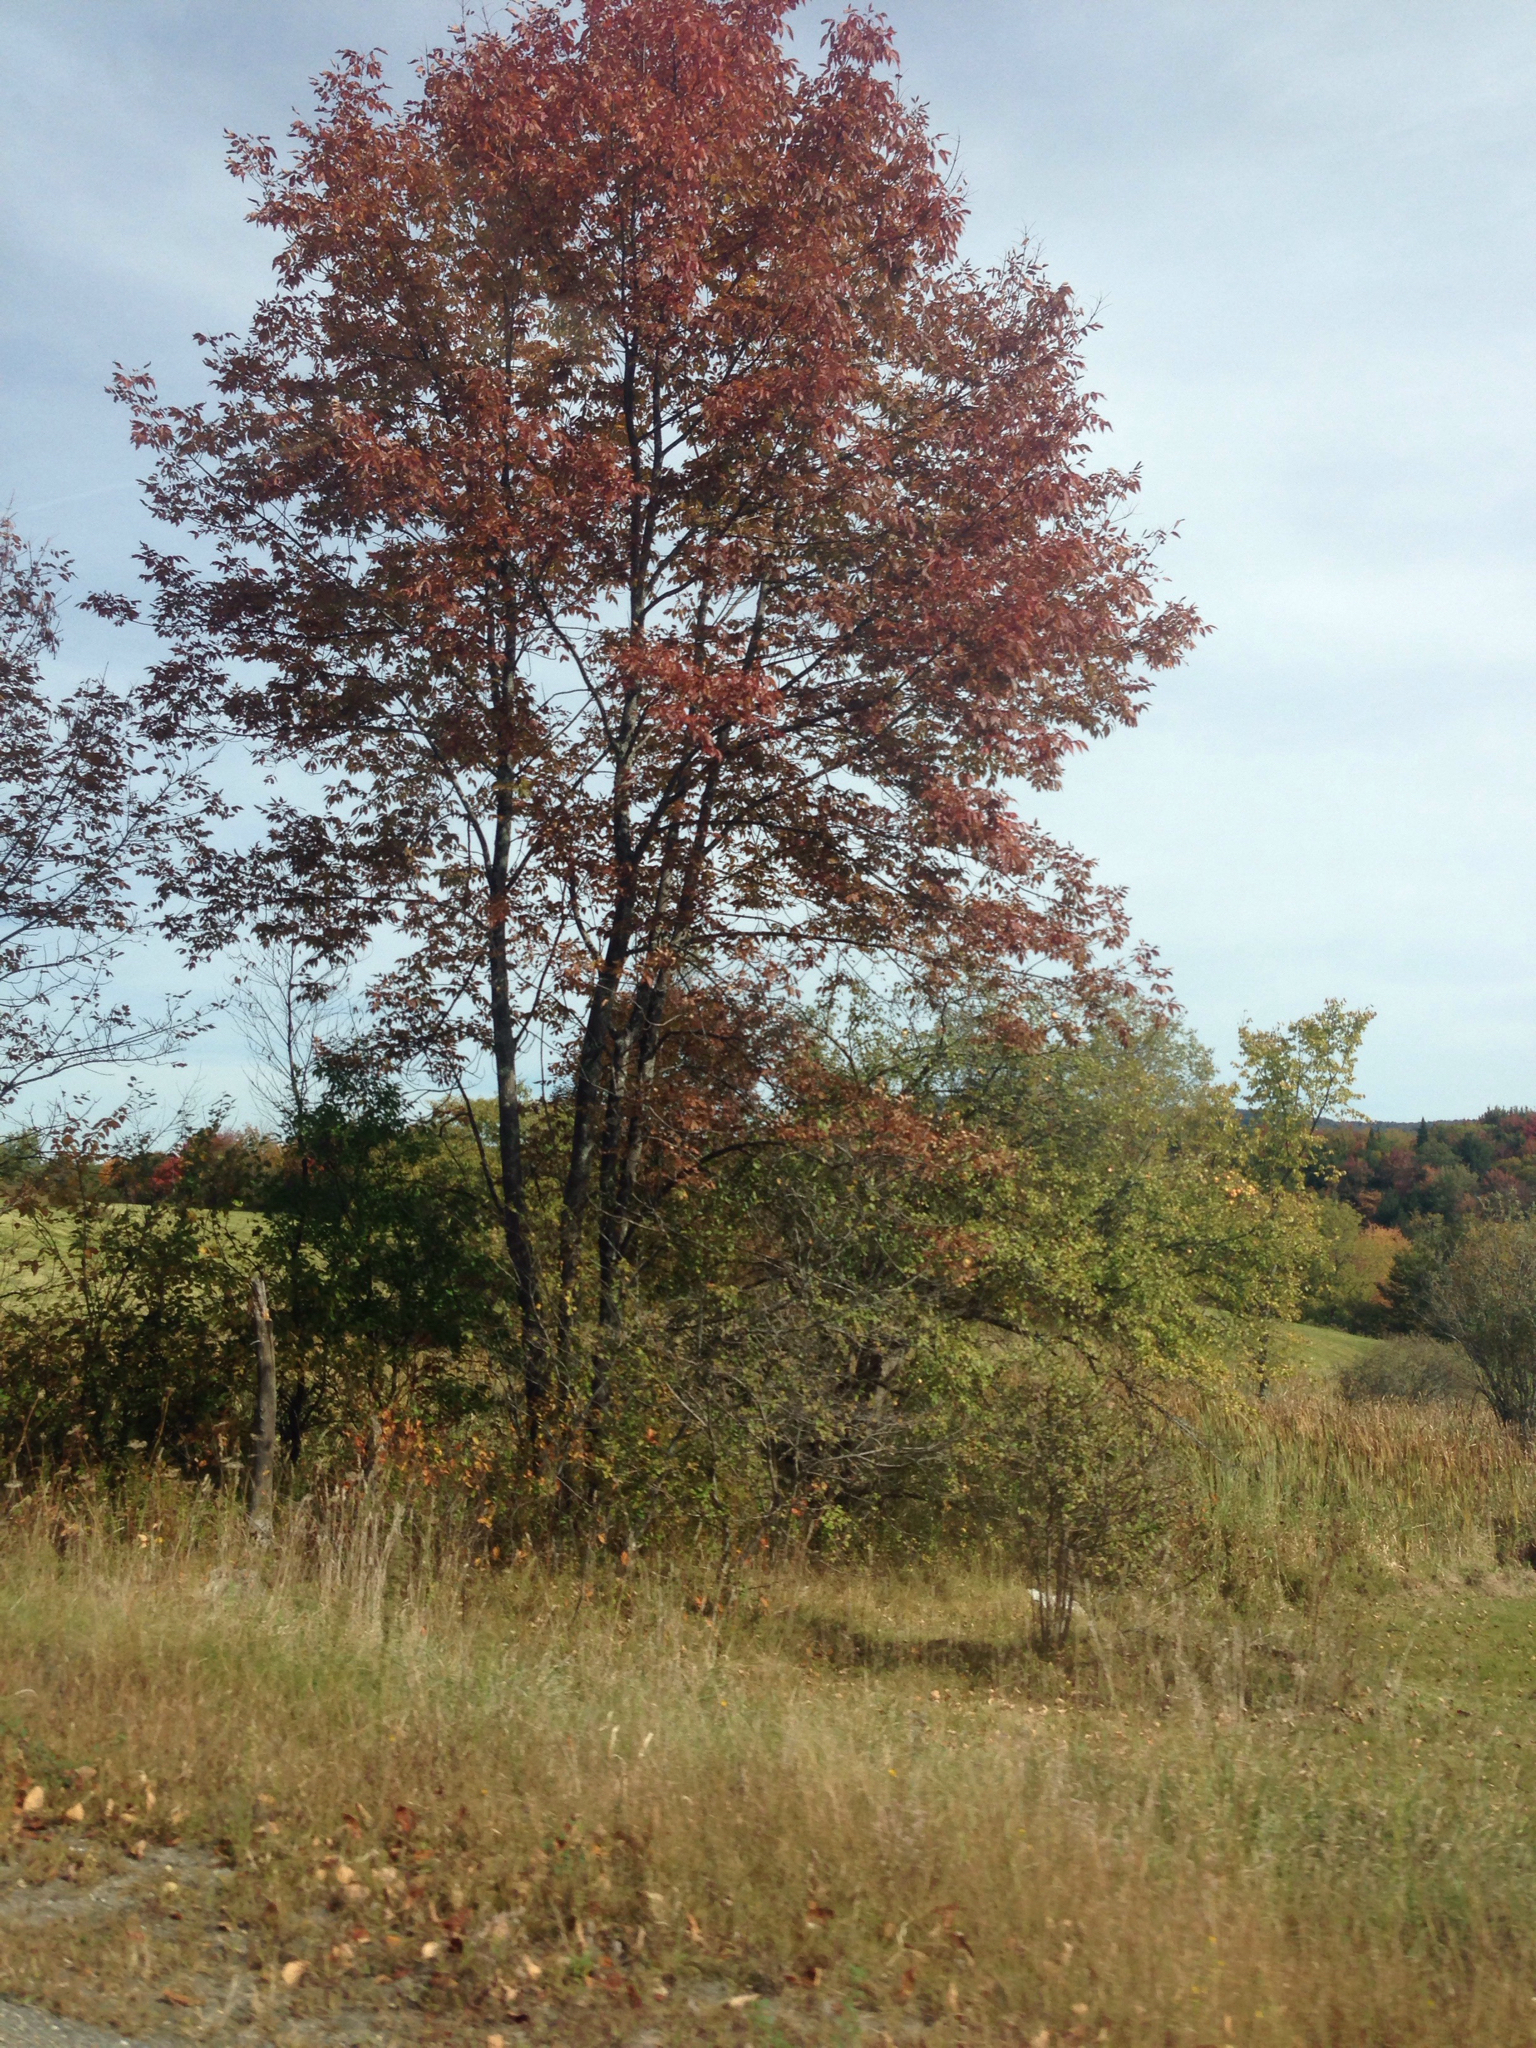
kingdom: Plantae
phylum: Tracheophyta
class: Magnoliopsida
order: Lamiales
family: Oleaceae
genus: Fraxinus
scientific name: Fraxinus americana
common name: White ash
